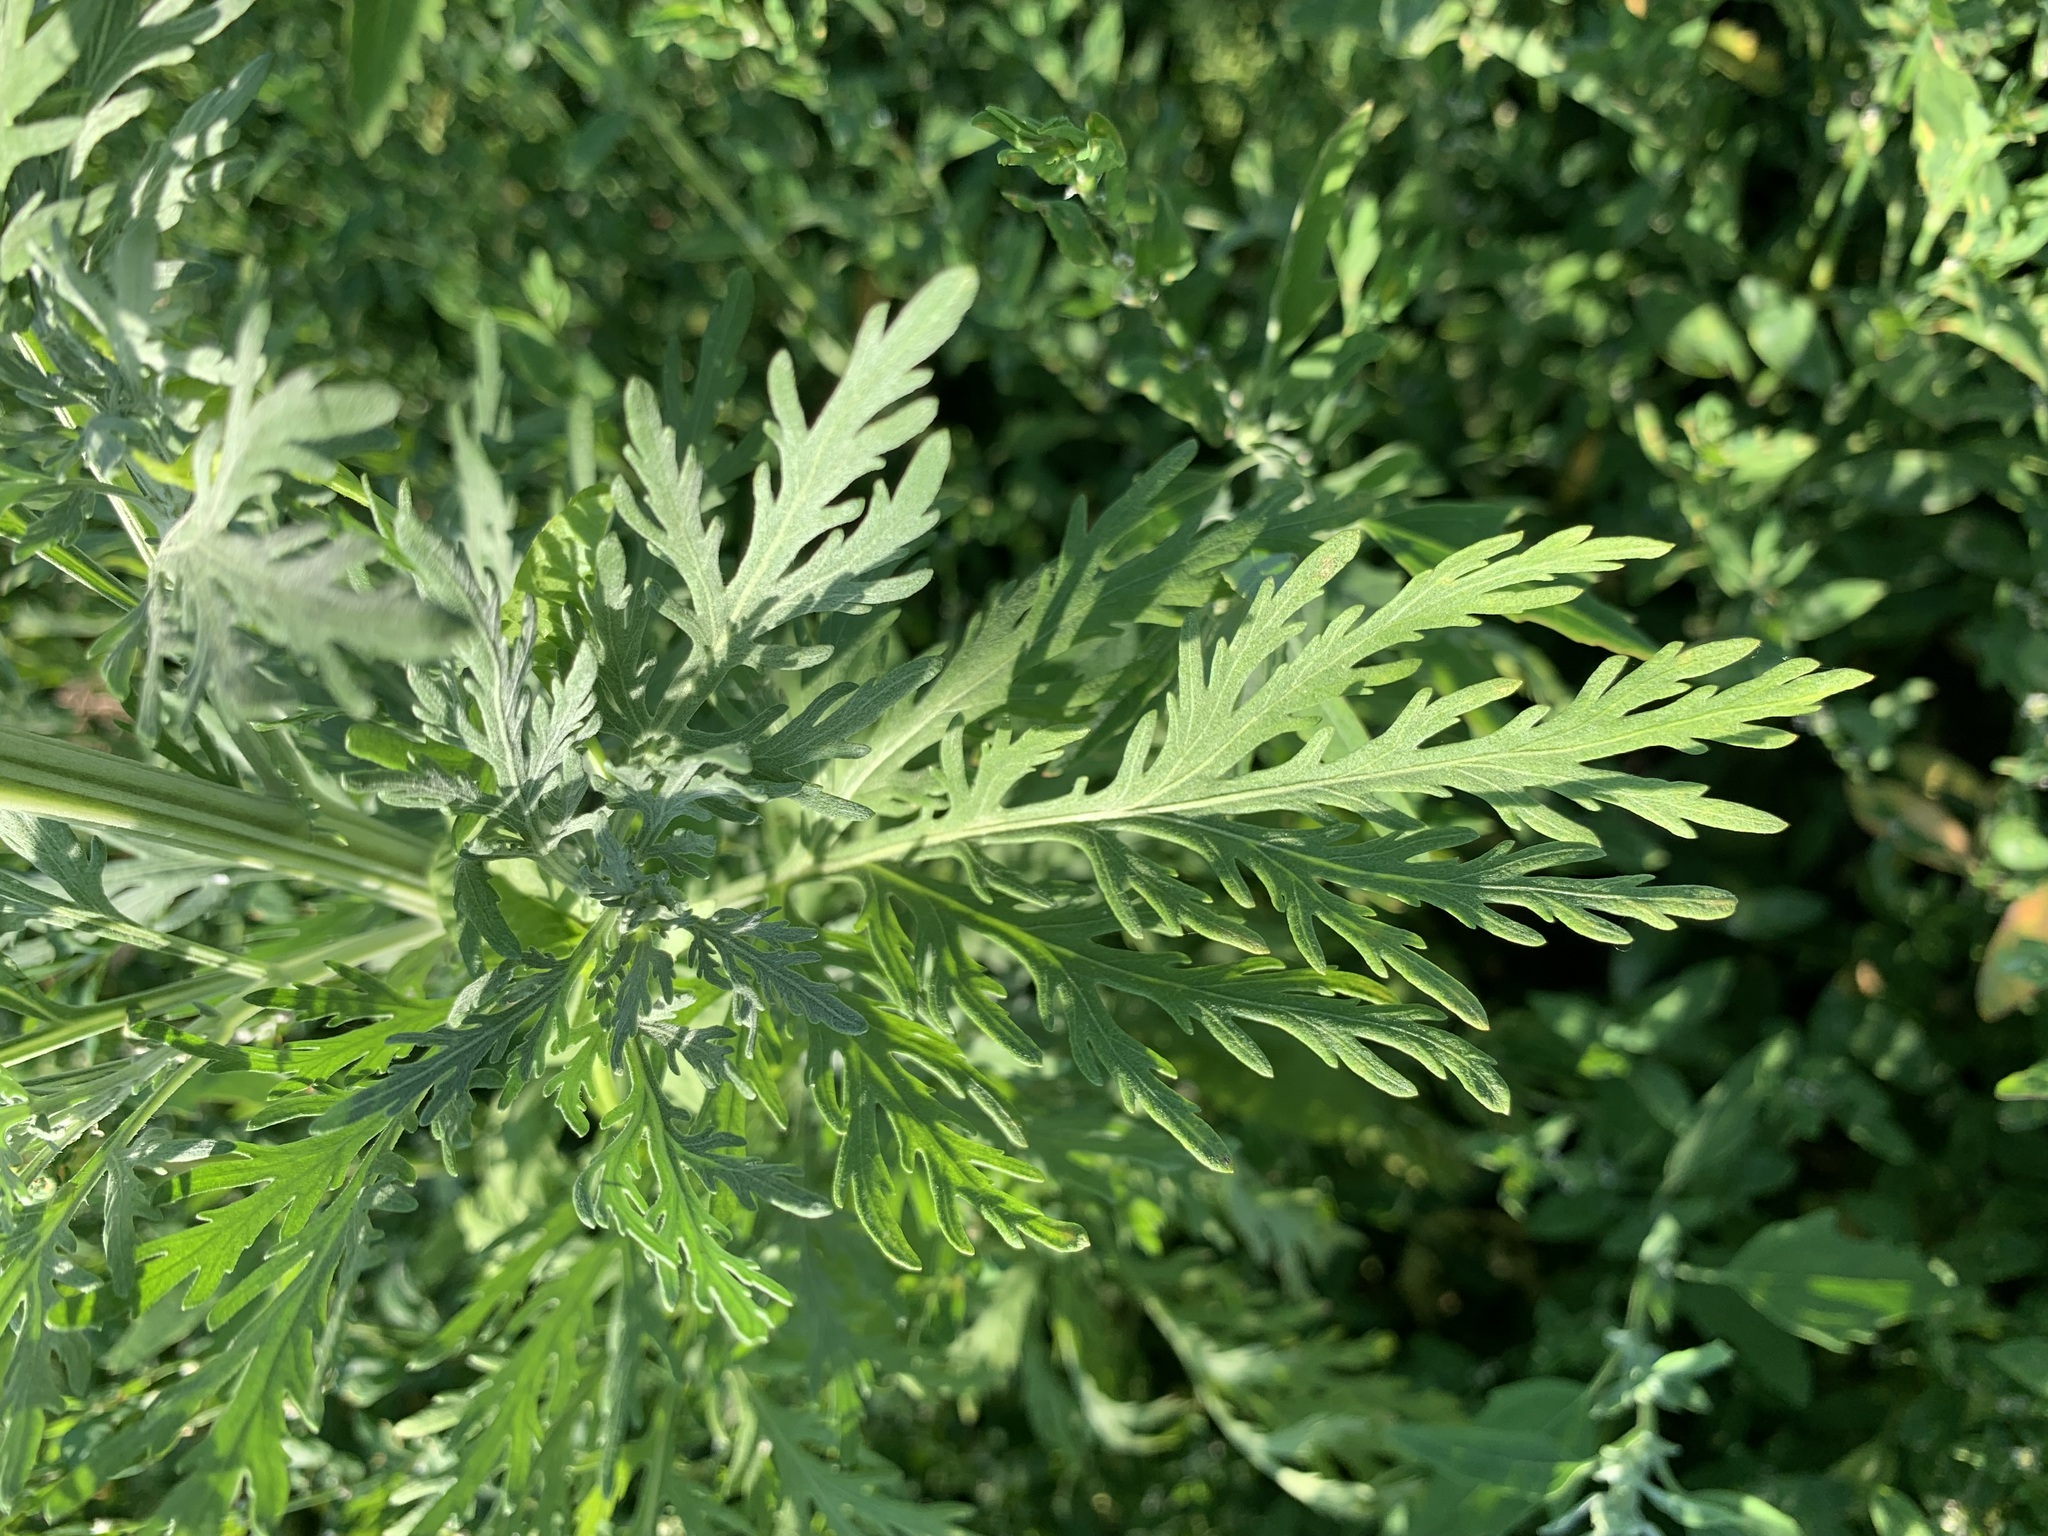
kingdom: Plantae
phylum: Tracheophyta
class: Magnoliopsida
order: Asterales
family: Asteraceae
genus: Artemisia
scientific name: Artemisia sieversiana
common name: Sieversian wormwood
